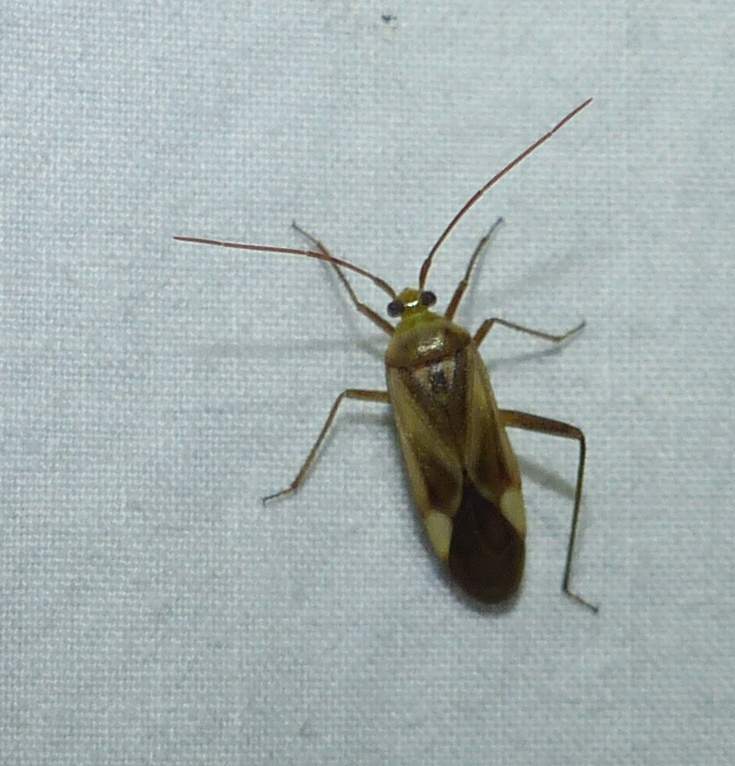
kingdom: Animalia
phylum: Arthropoda
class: Insecta
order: Hemiptera
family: Miridae
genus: Adelphocoris
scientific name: Adelphocoris lineolatus
